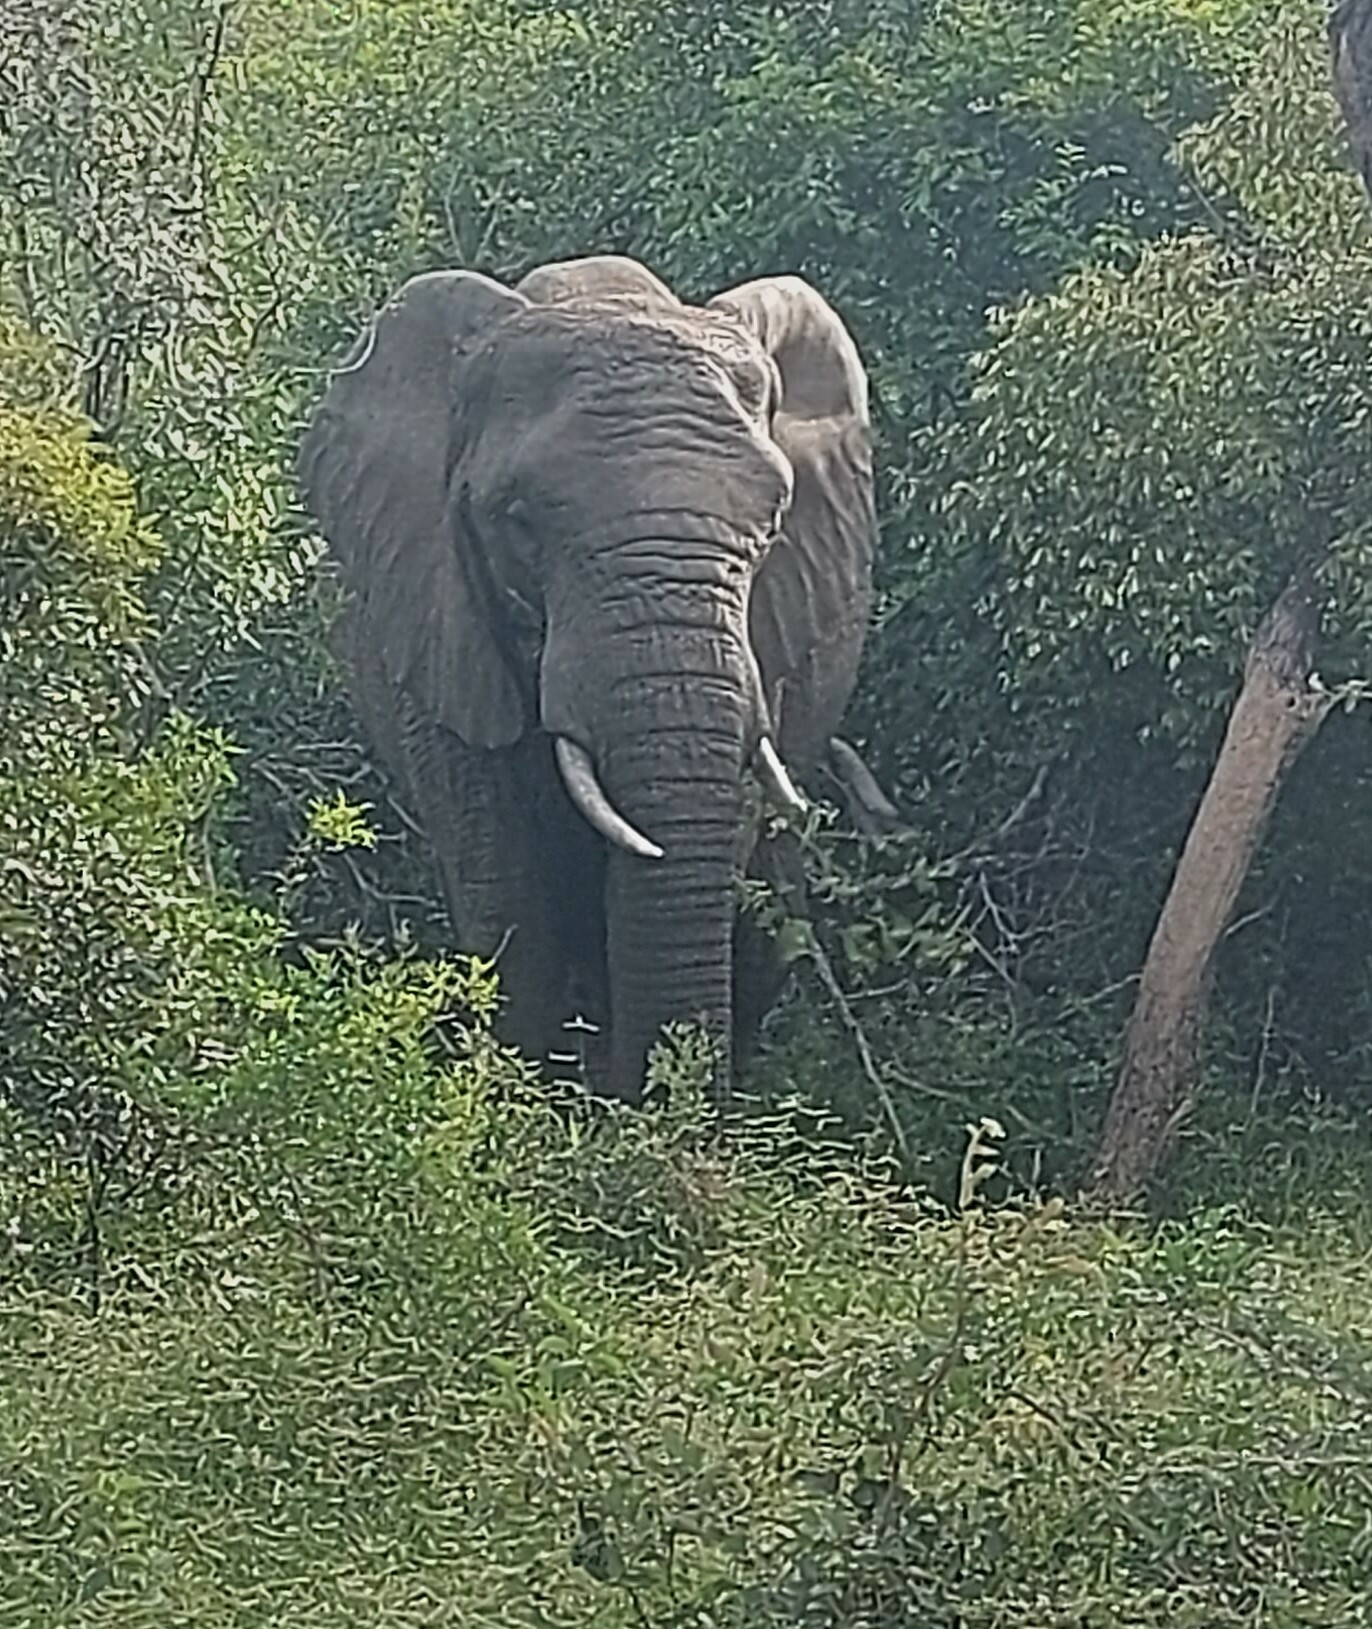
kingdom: Animalia
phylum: Chordata
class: Mammalia
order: Proboscidea
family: Elephantidae
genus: Loxodonta
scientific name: Loxodonta africana
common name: African elephant
